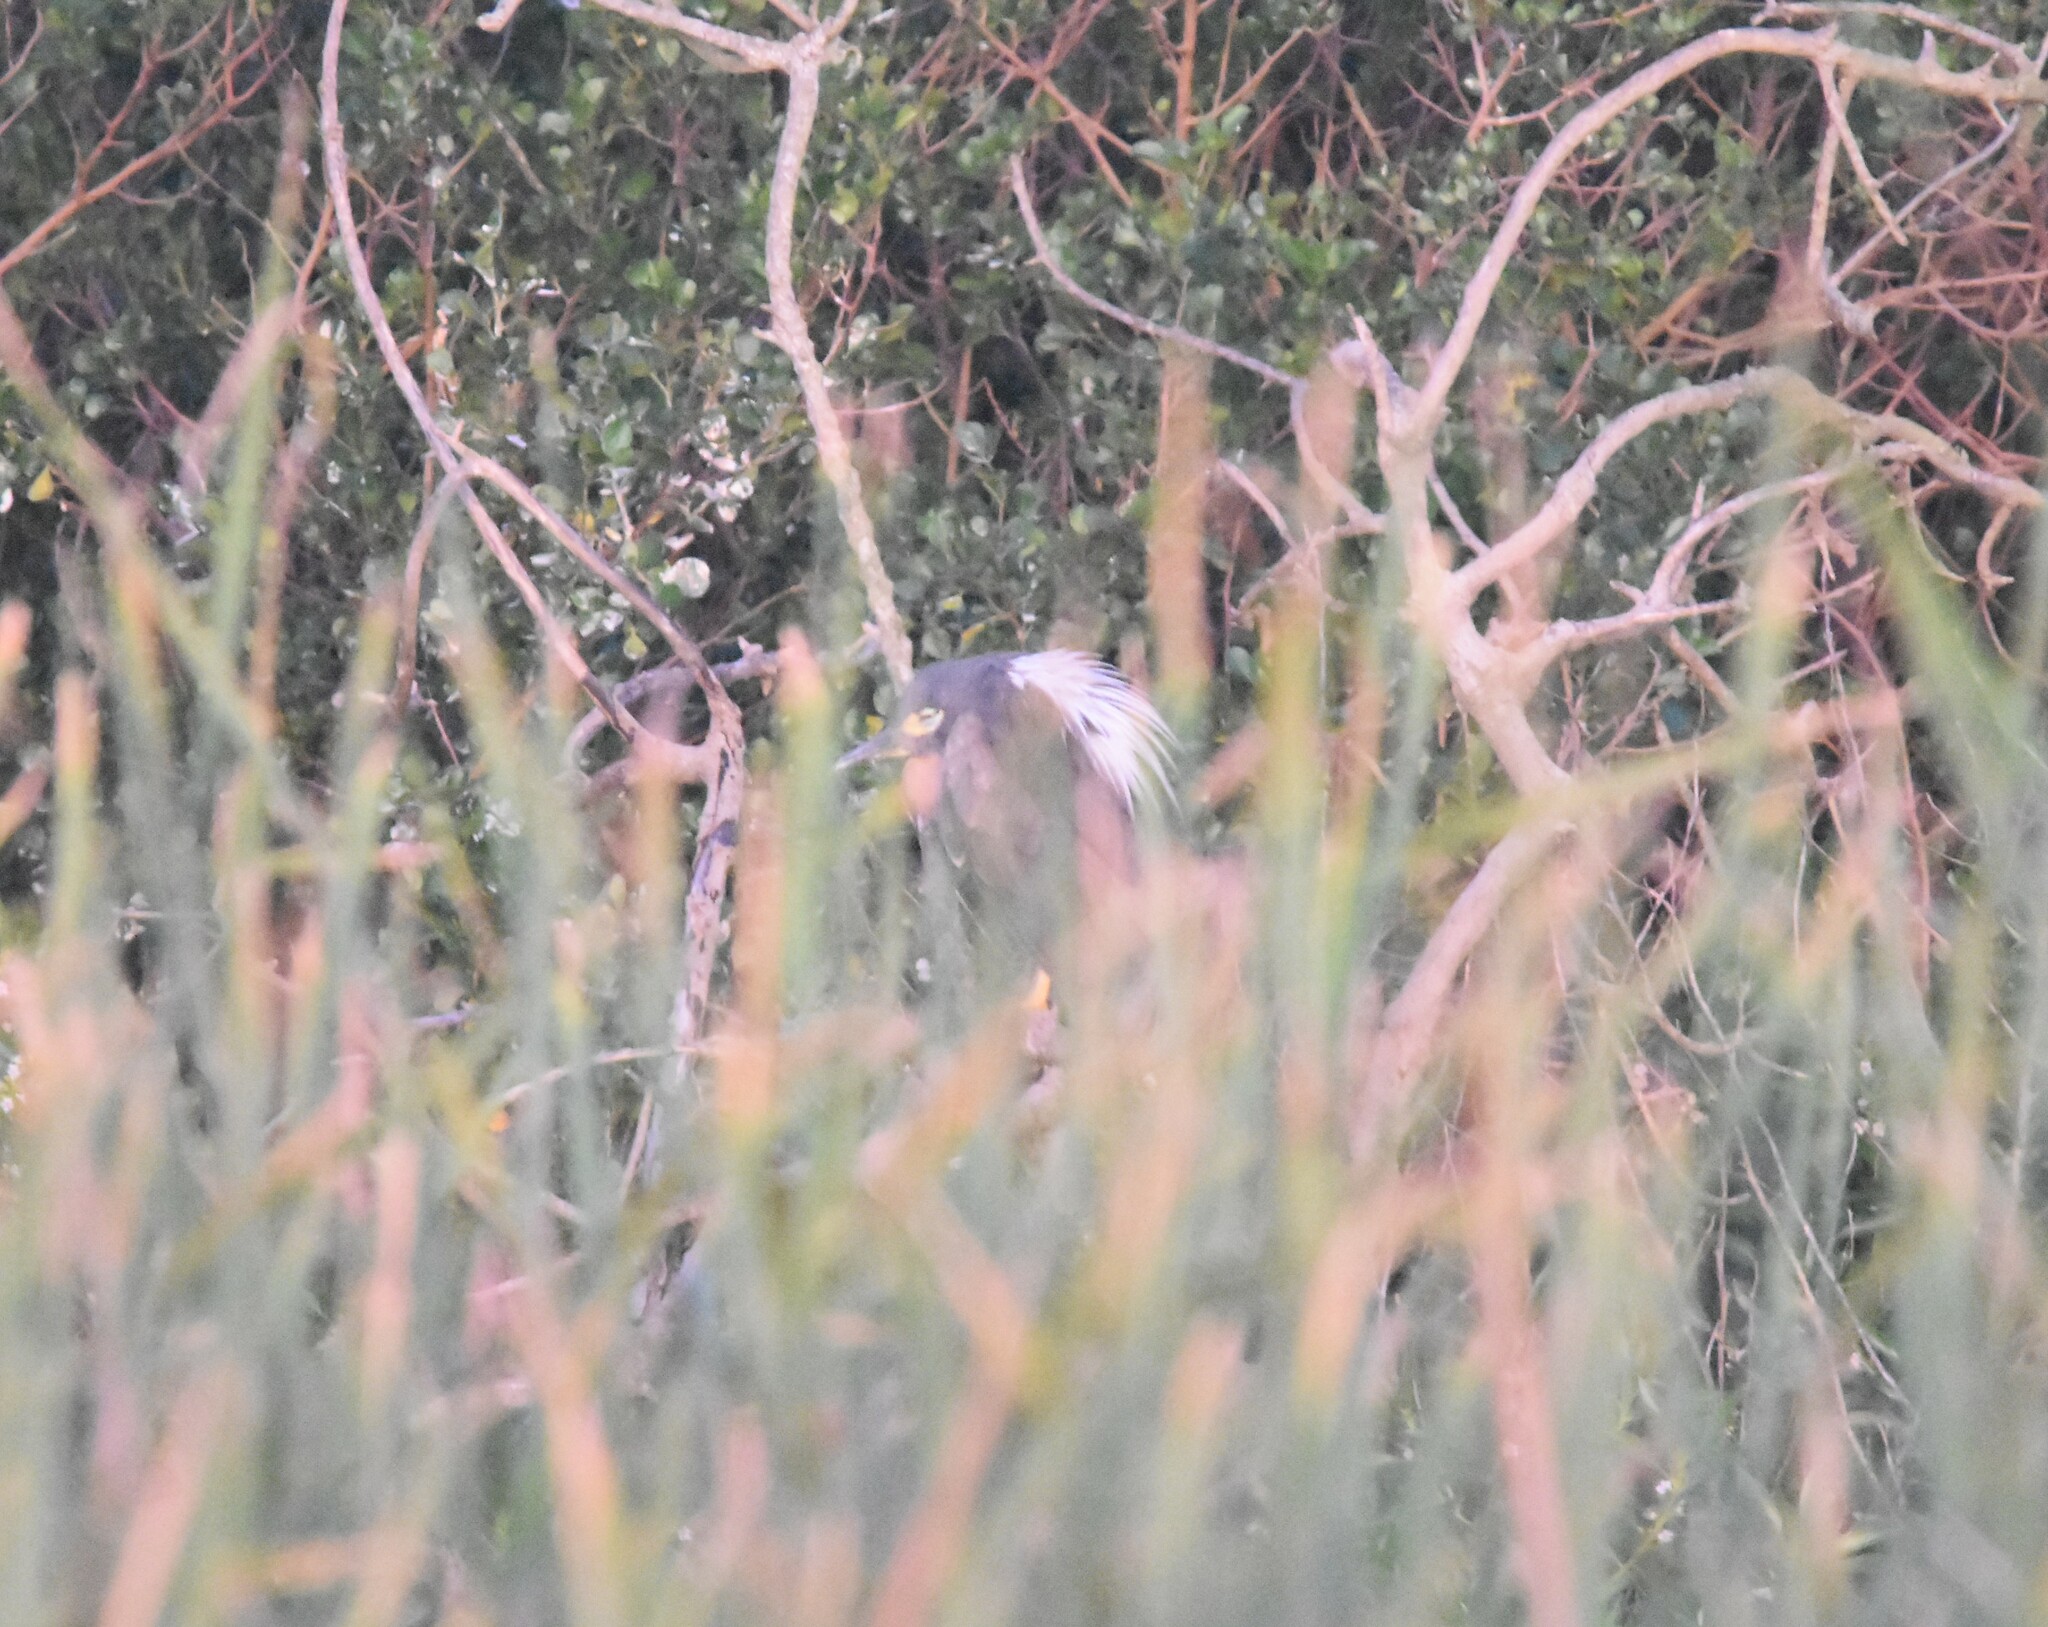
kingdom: Animalia
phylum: Chordata
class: Aves
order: Pelecaniformes
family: Ardeidae
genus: Gorsachius
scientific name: Gorsachius leuconotus
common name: White-backed night heron
